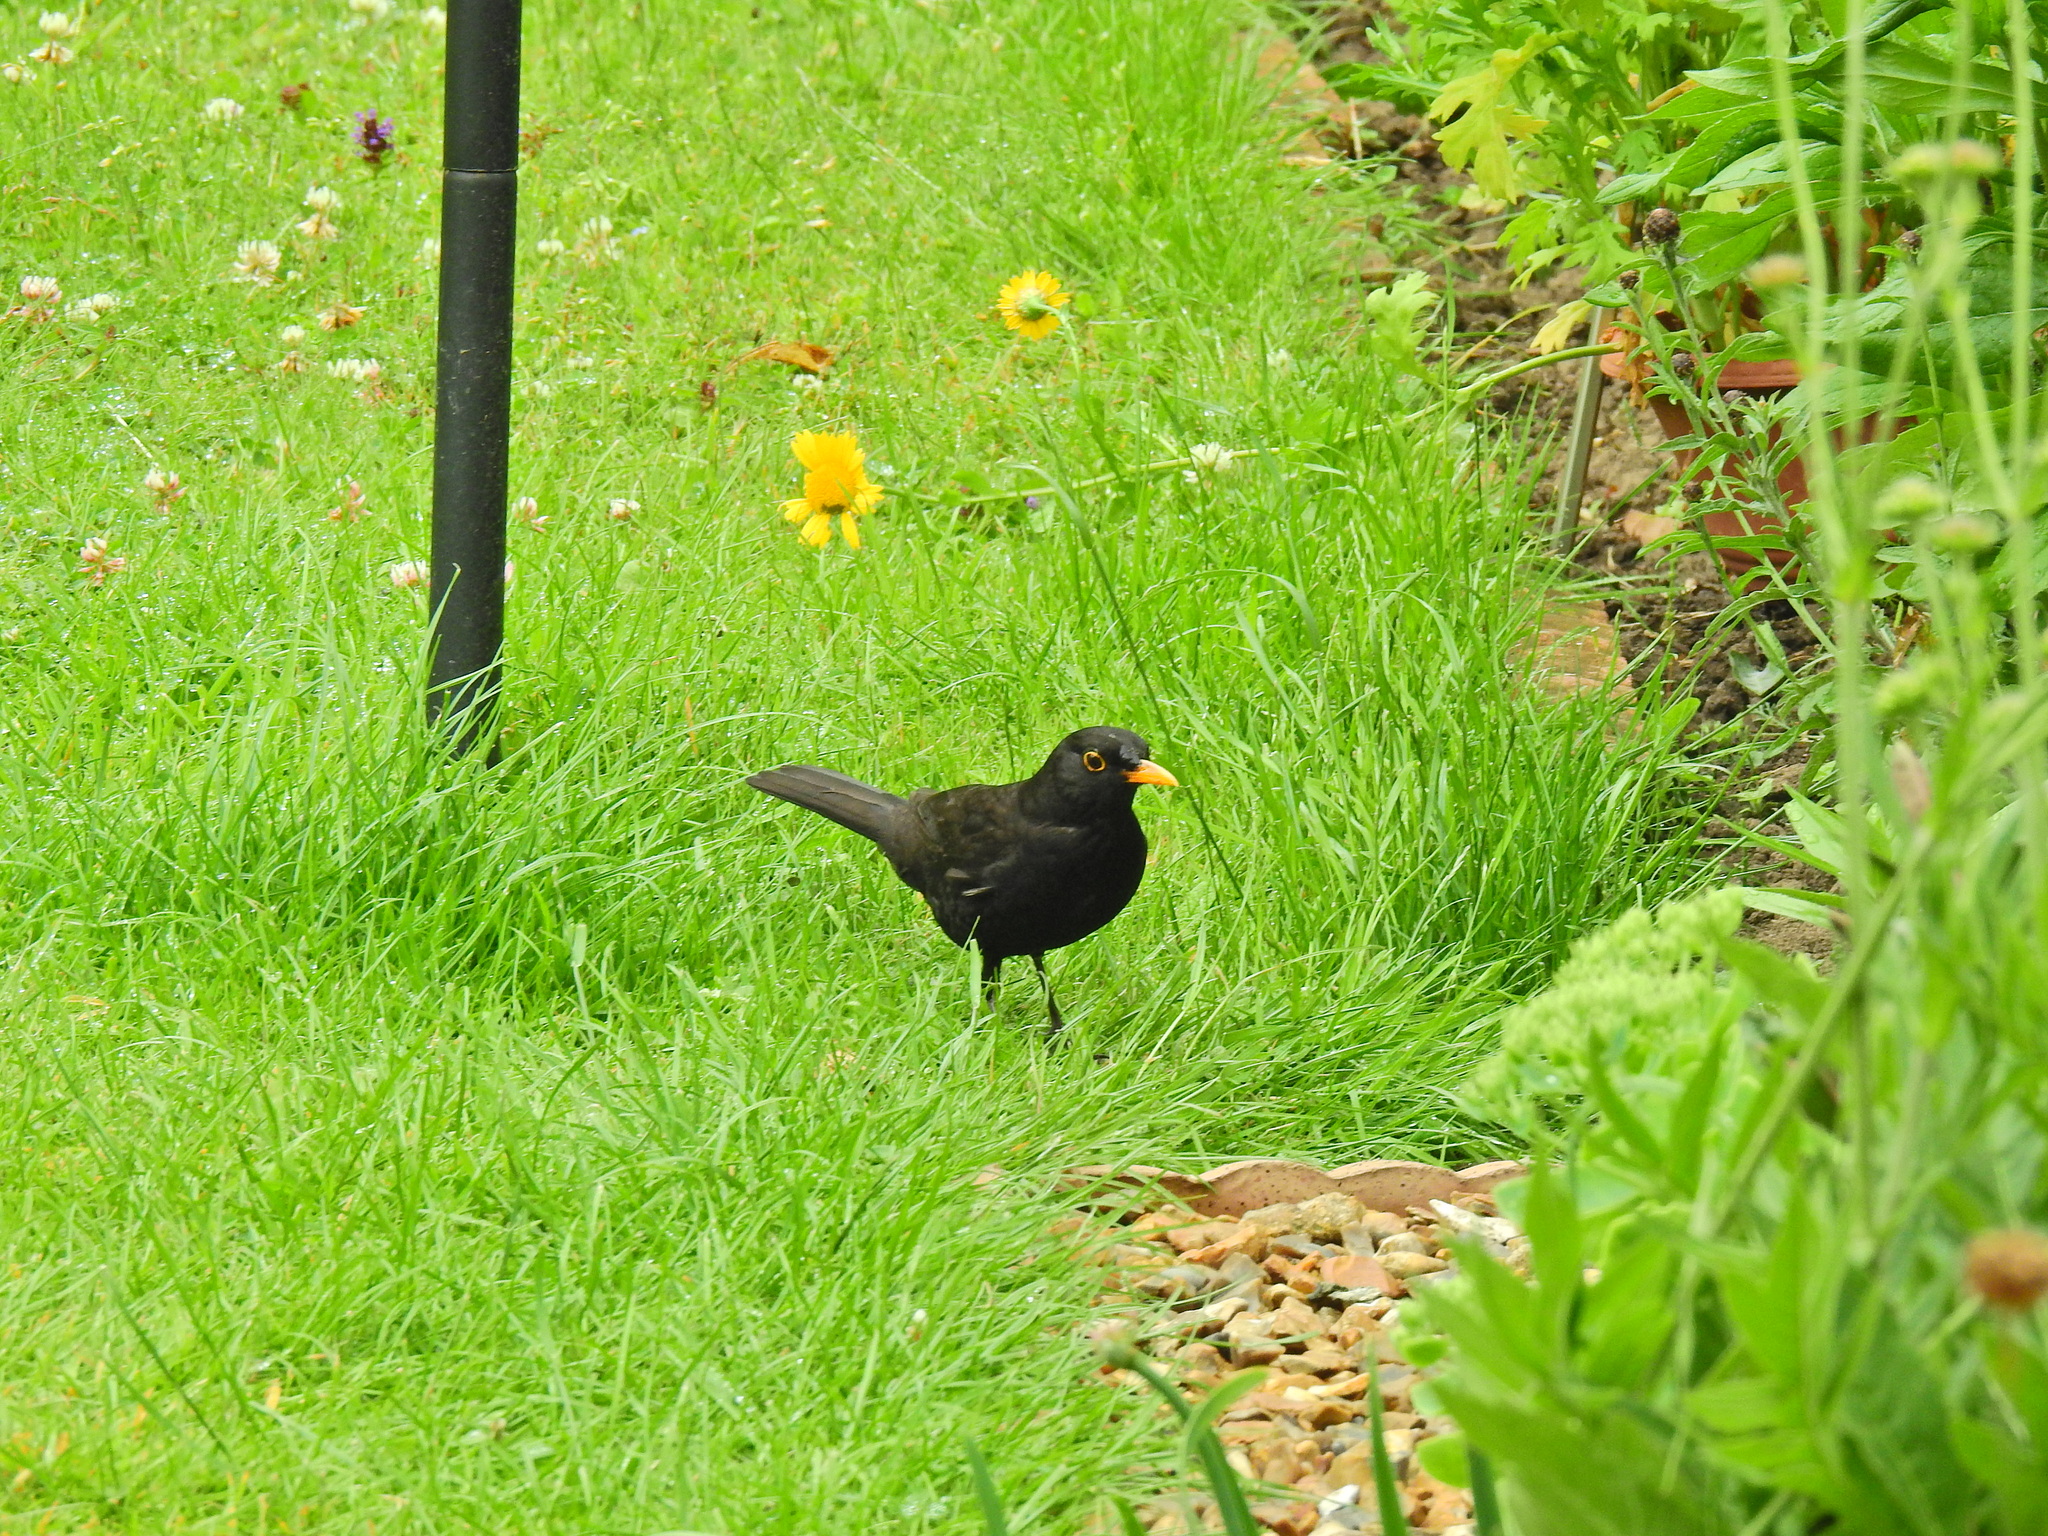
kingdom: Animalia
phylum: Chordata
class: Aves
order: Passeriformes
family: Turdidae
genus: Turdus
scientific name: Turdus merula
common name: Common blackbird
